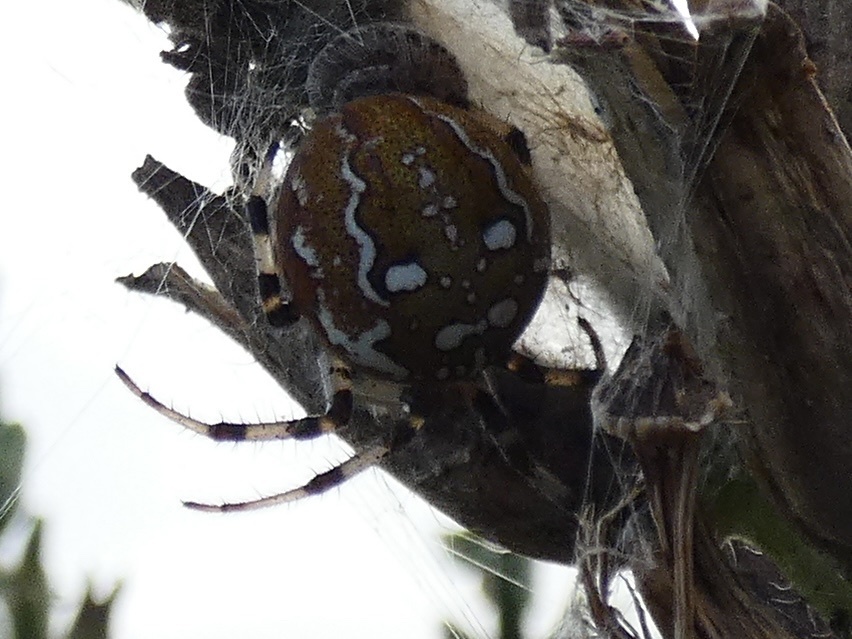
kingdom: Animalia
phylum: Arthropoda
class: Arachnida
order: Araneae
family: Araneidae
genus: Araneus
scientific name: Araneus quadratus
